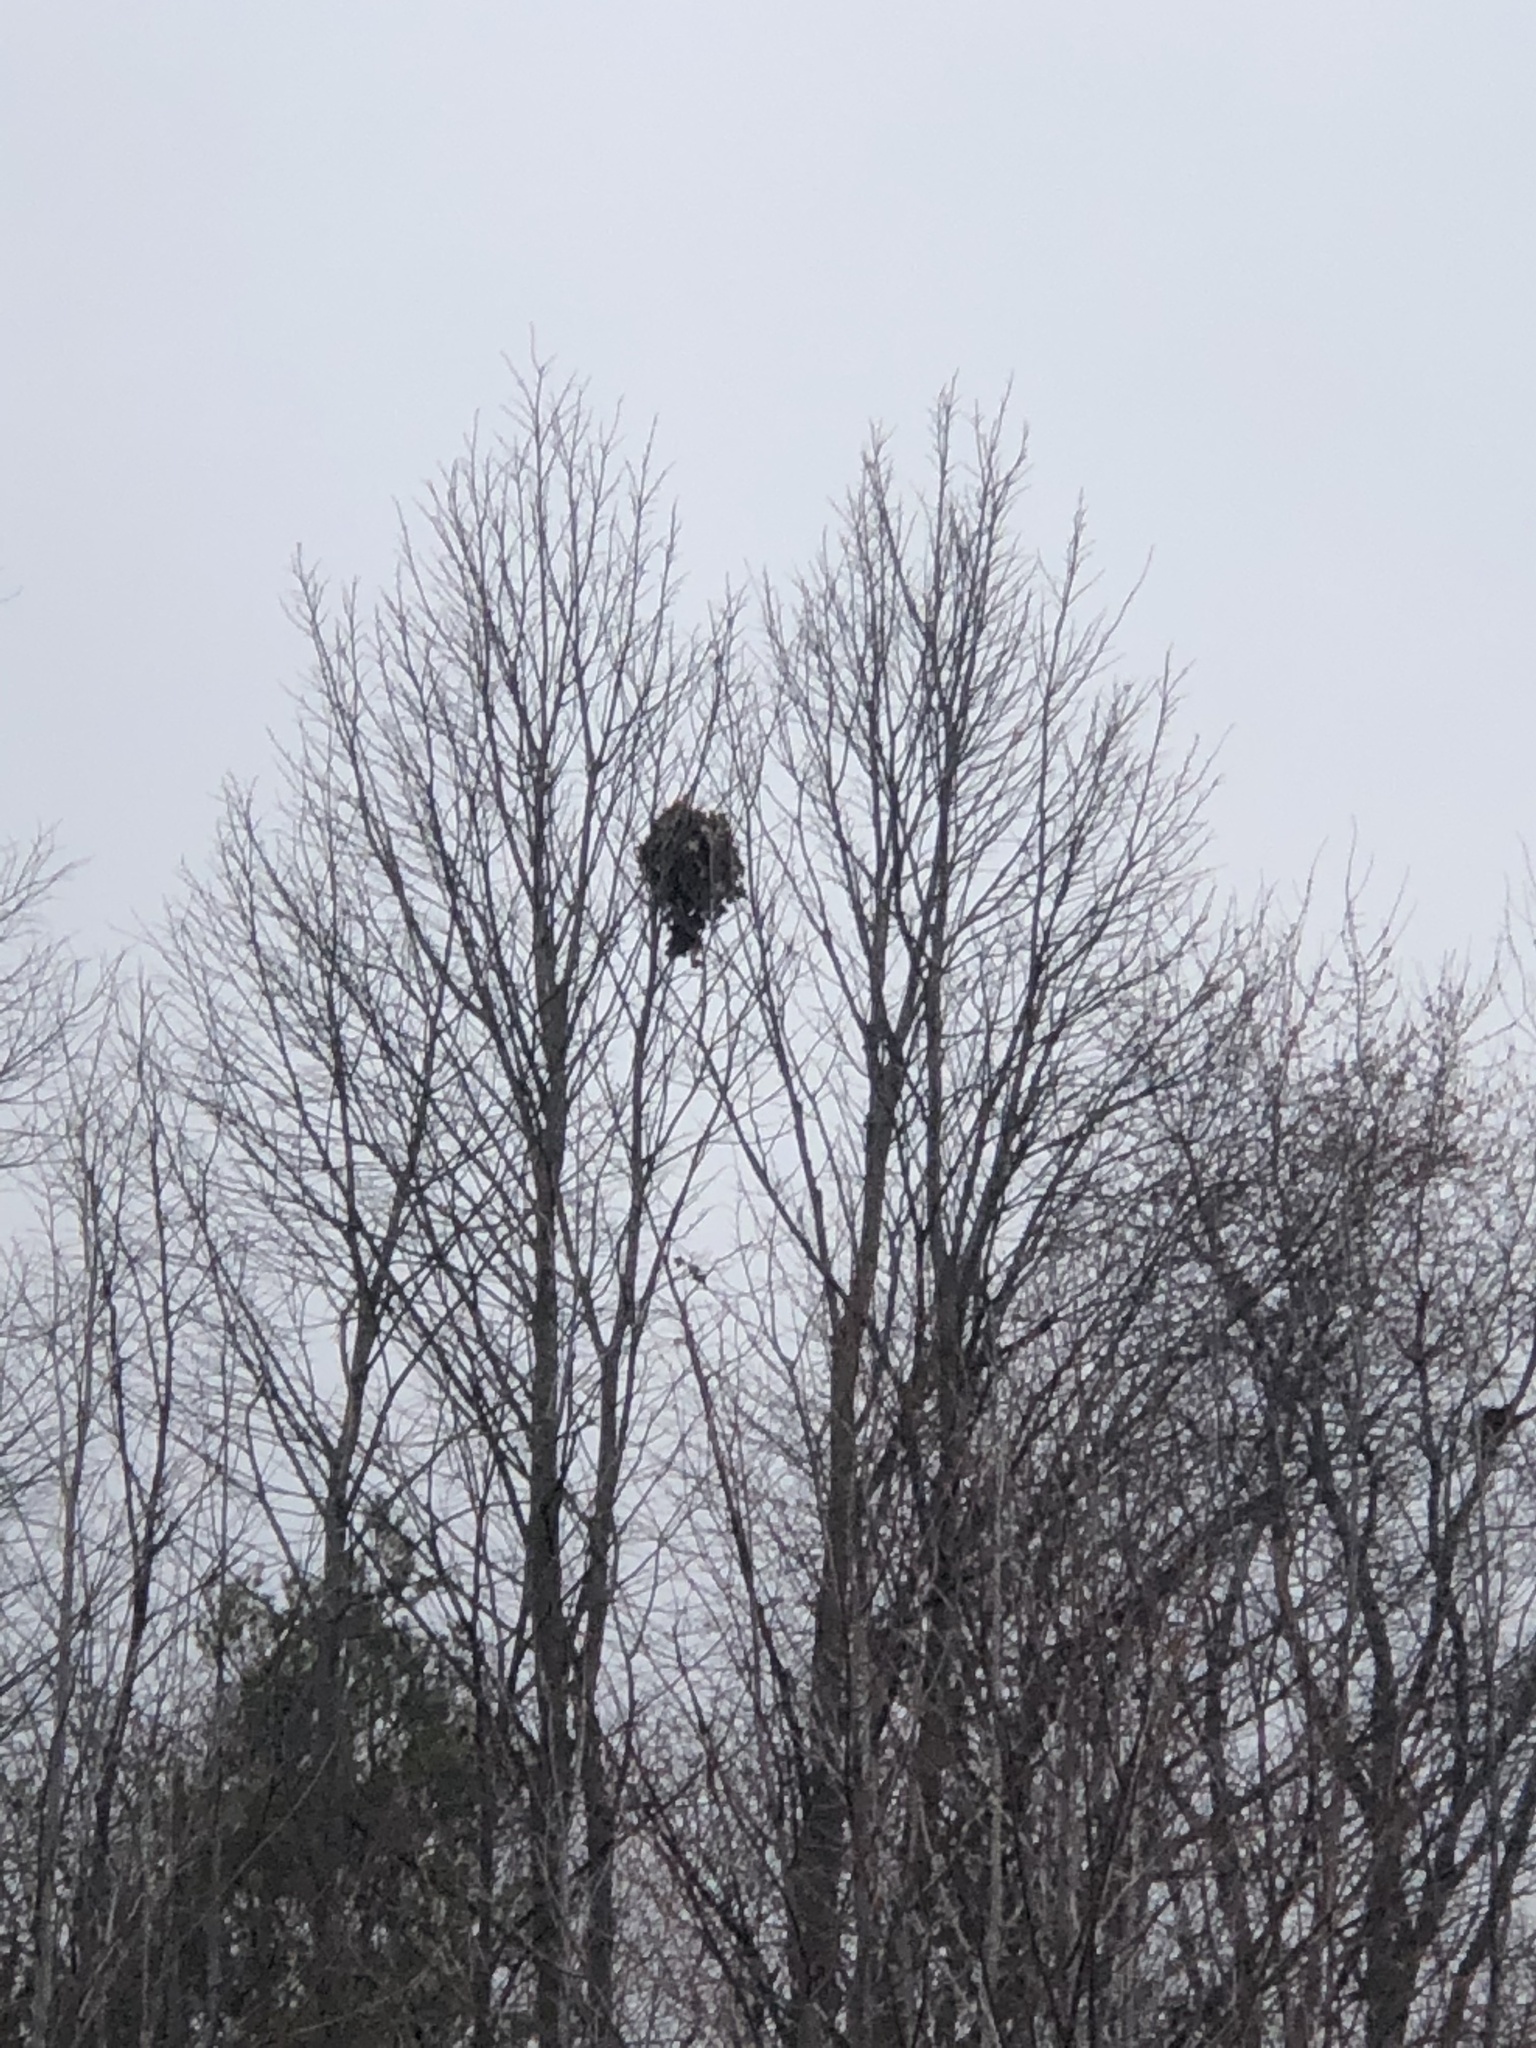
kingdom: Animalia
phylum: Chordata
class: Mammalia
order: Rodentia
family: Sciuridae
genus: Sciurus
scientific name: Sciurus carolinensis
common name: Eastern gray squirrel
